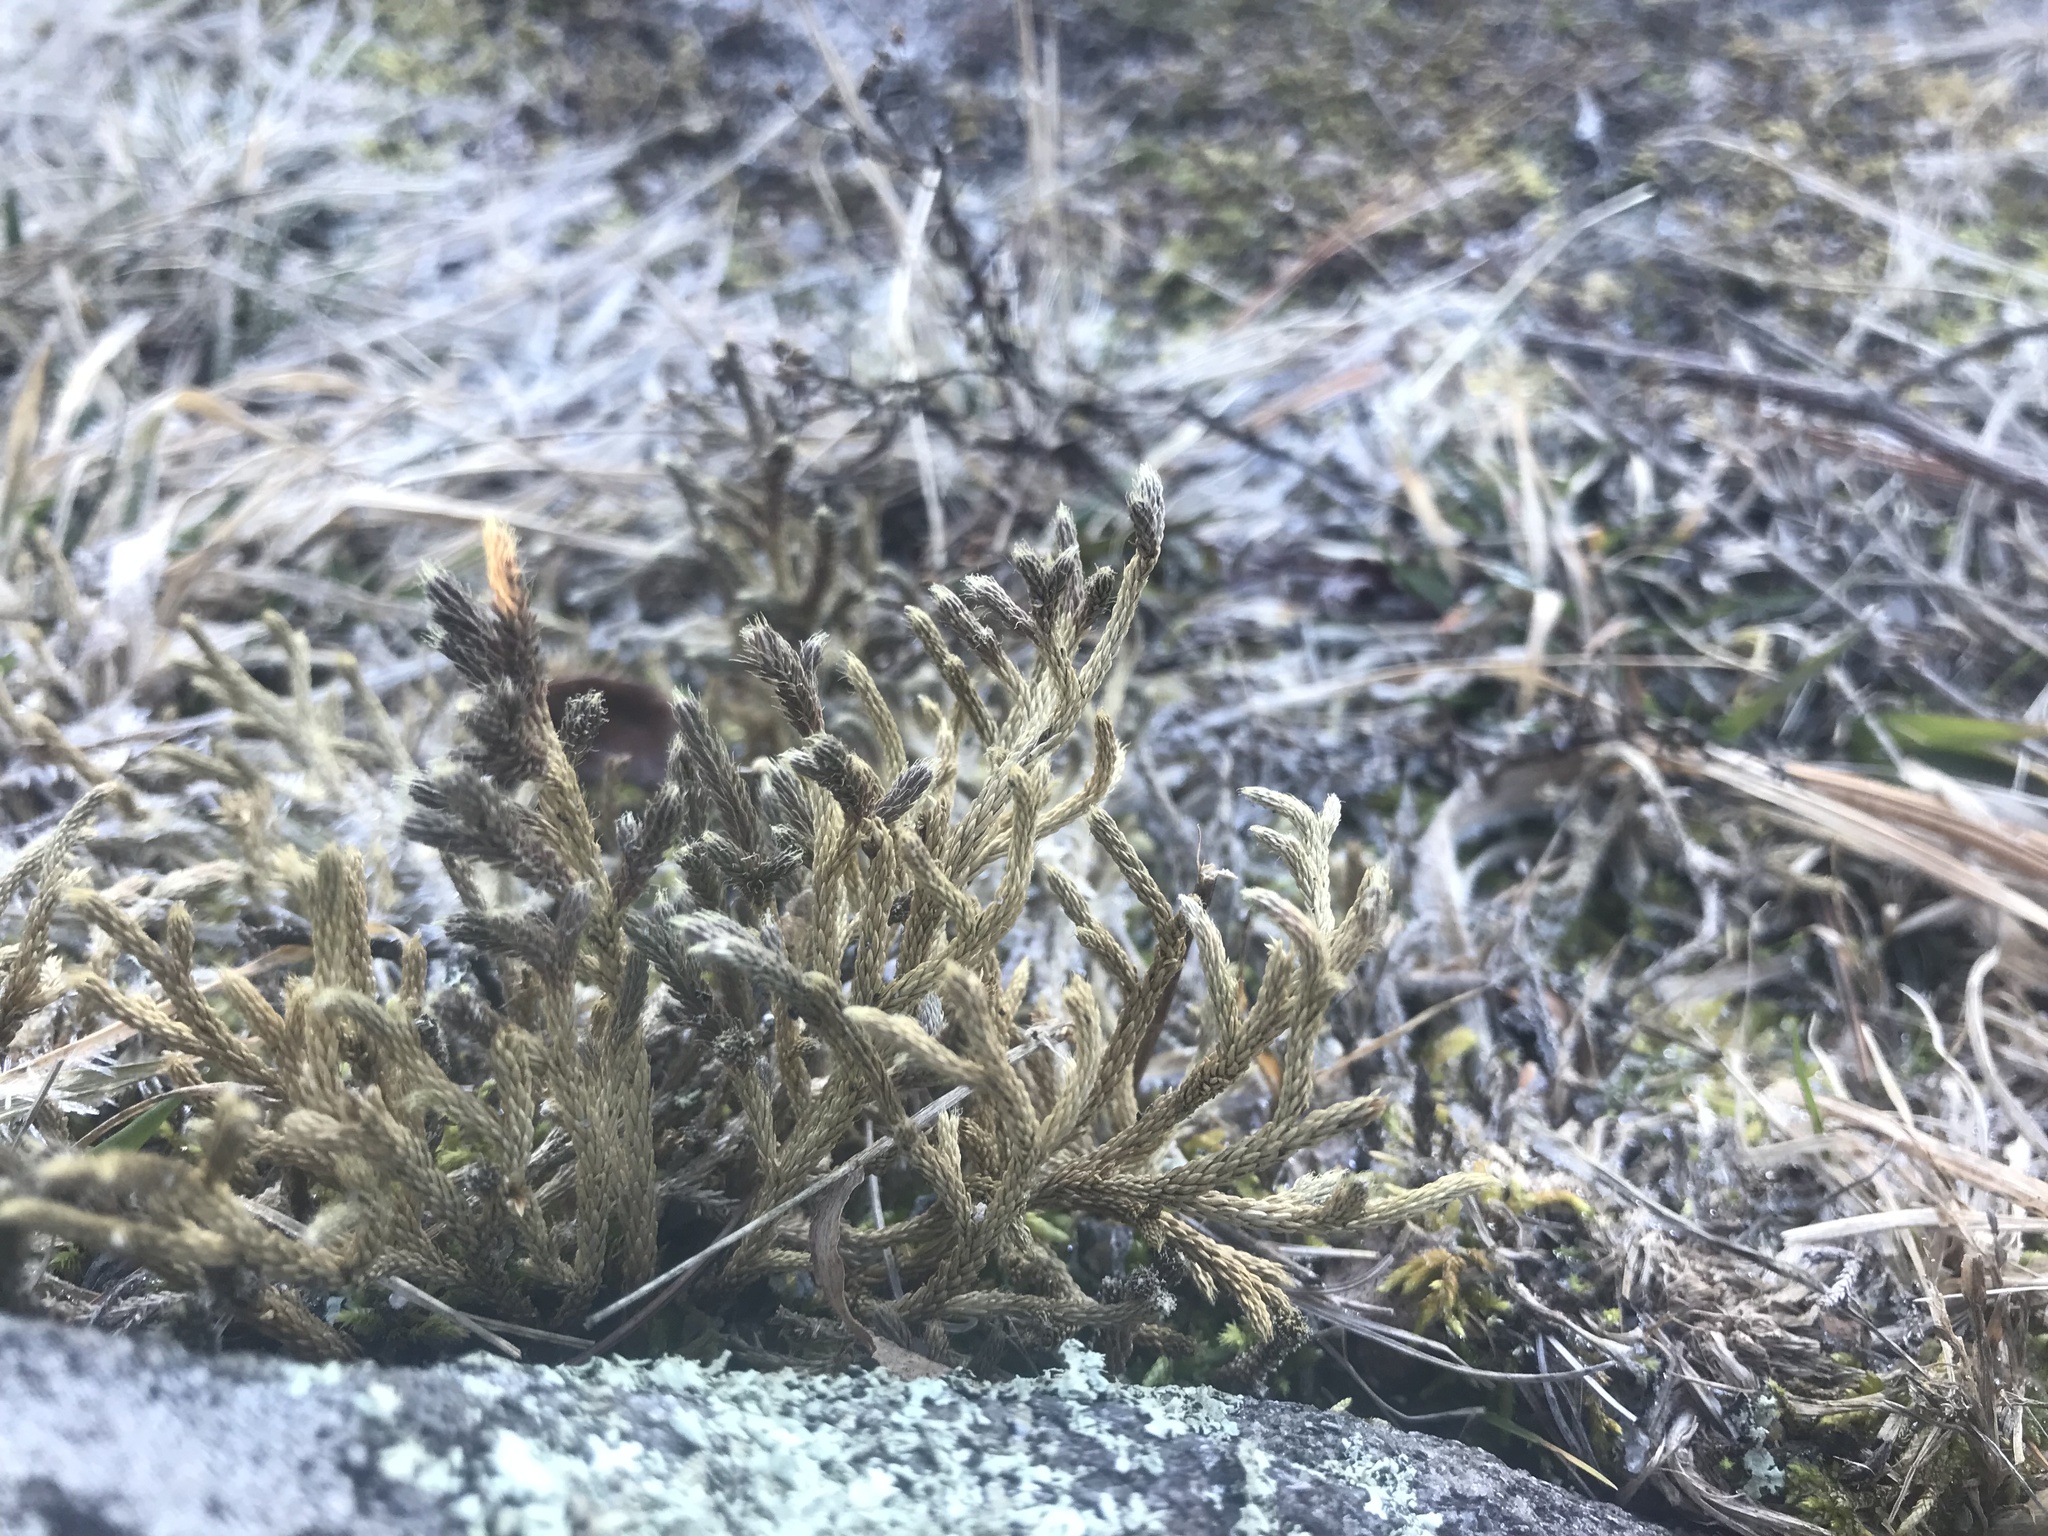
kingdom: Plantae
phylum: Tracheophyta
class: Lycopodiopsida
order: Selaginellales
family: Selaginellaceae
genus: Selaginella
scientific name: Selaginella tortipila
